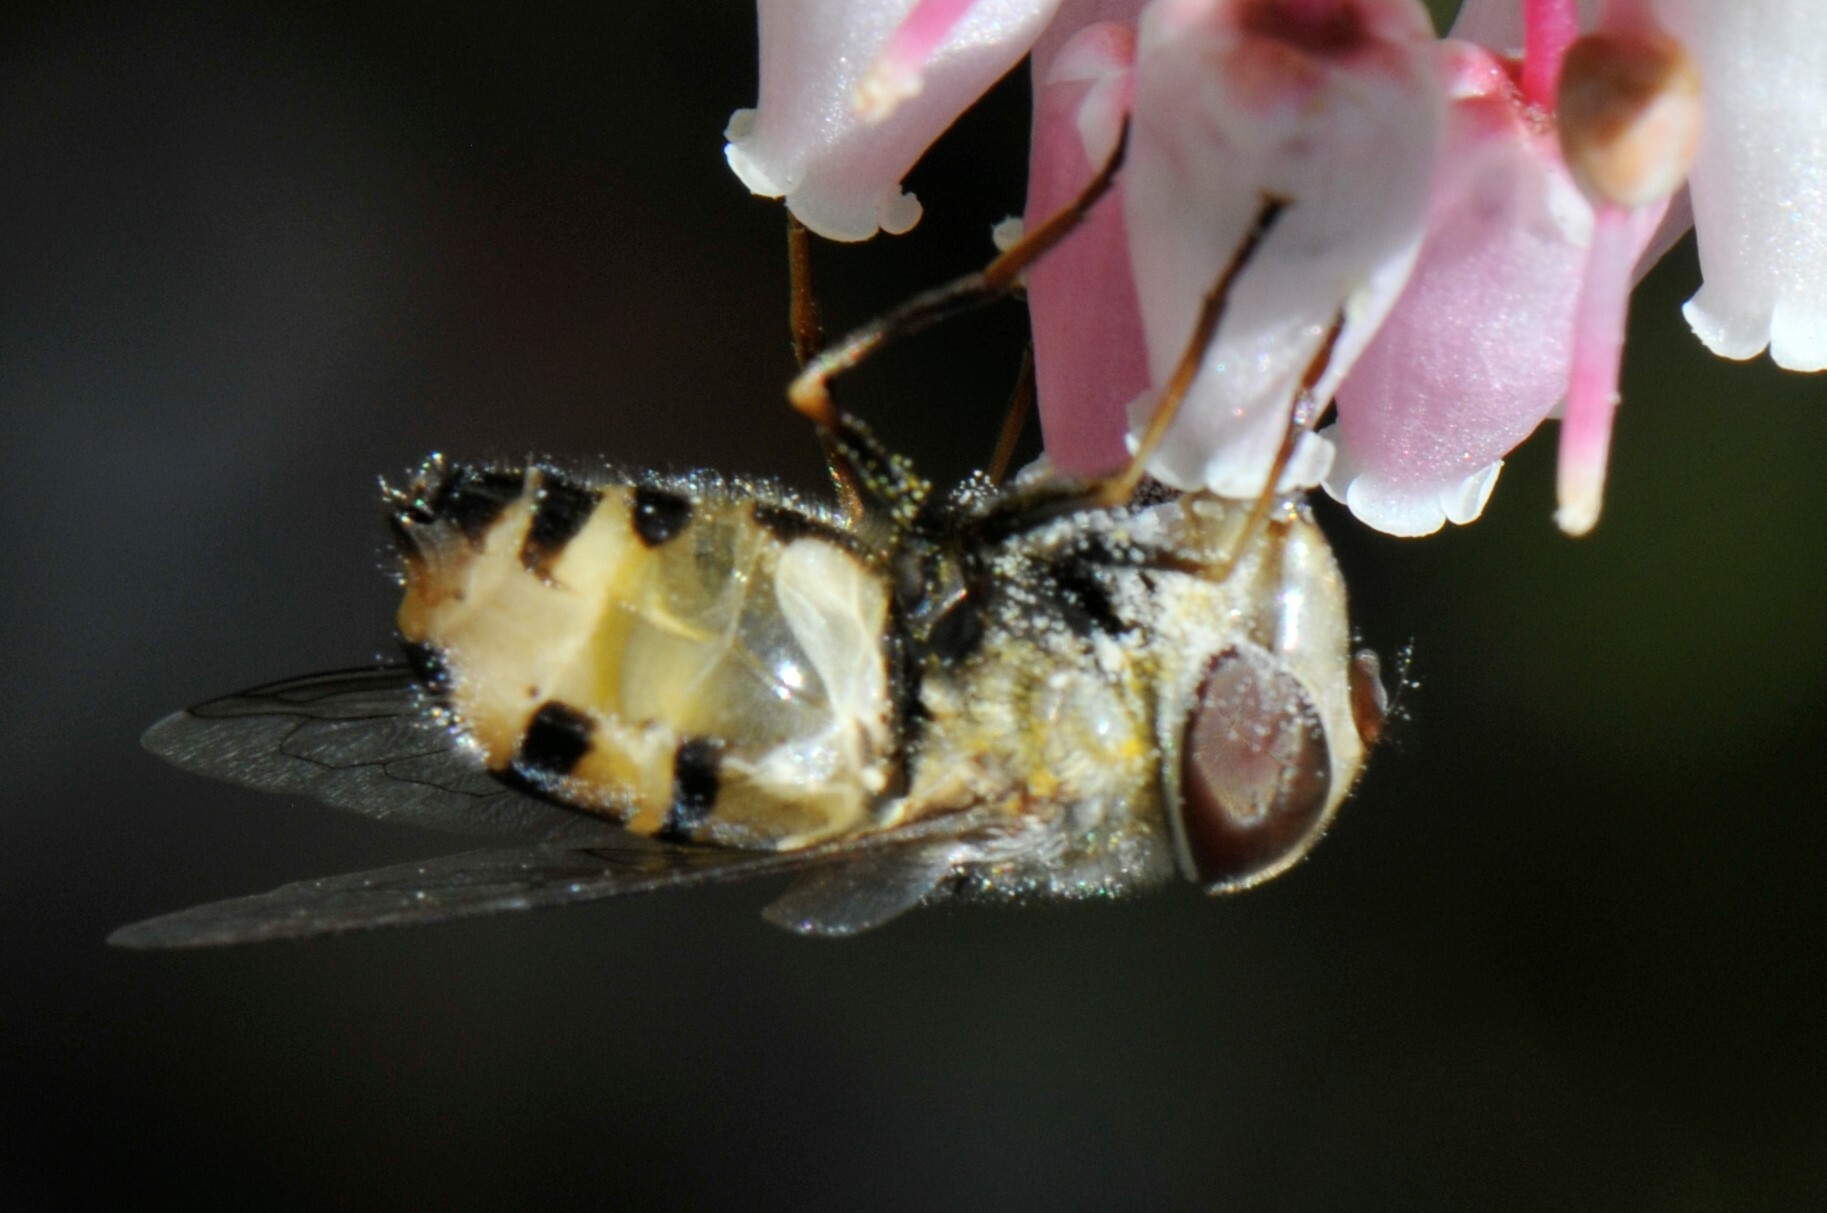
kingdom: Animalia
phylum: Arthropoda
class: Insecta
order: Diptera
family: Syrphidae
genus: Copestylum
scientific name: Copestylum isabellina
